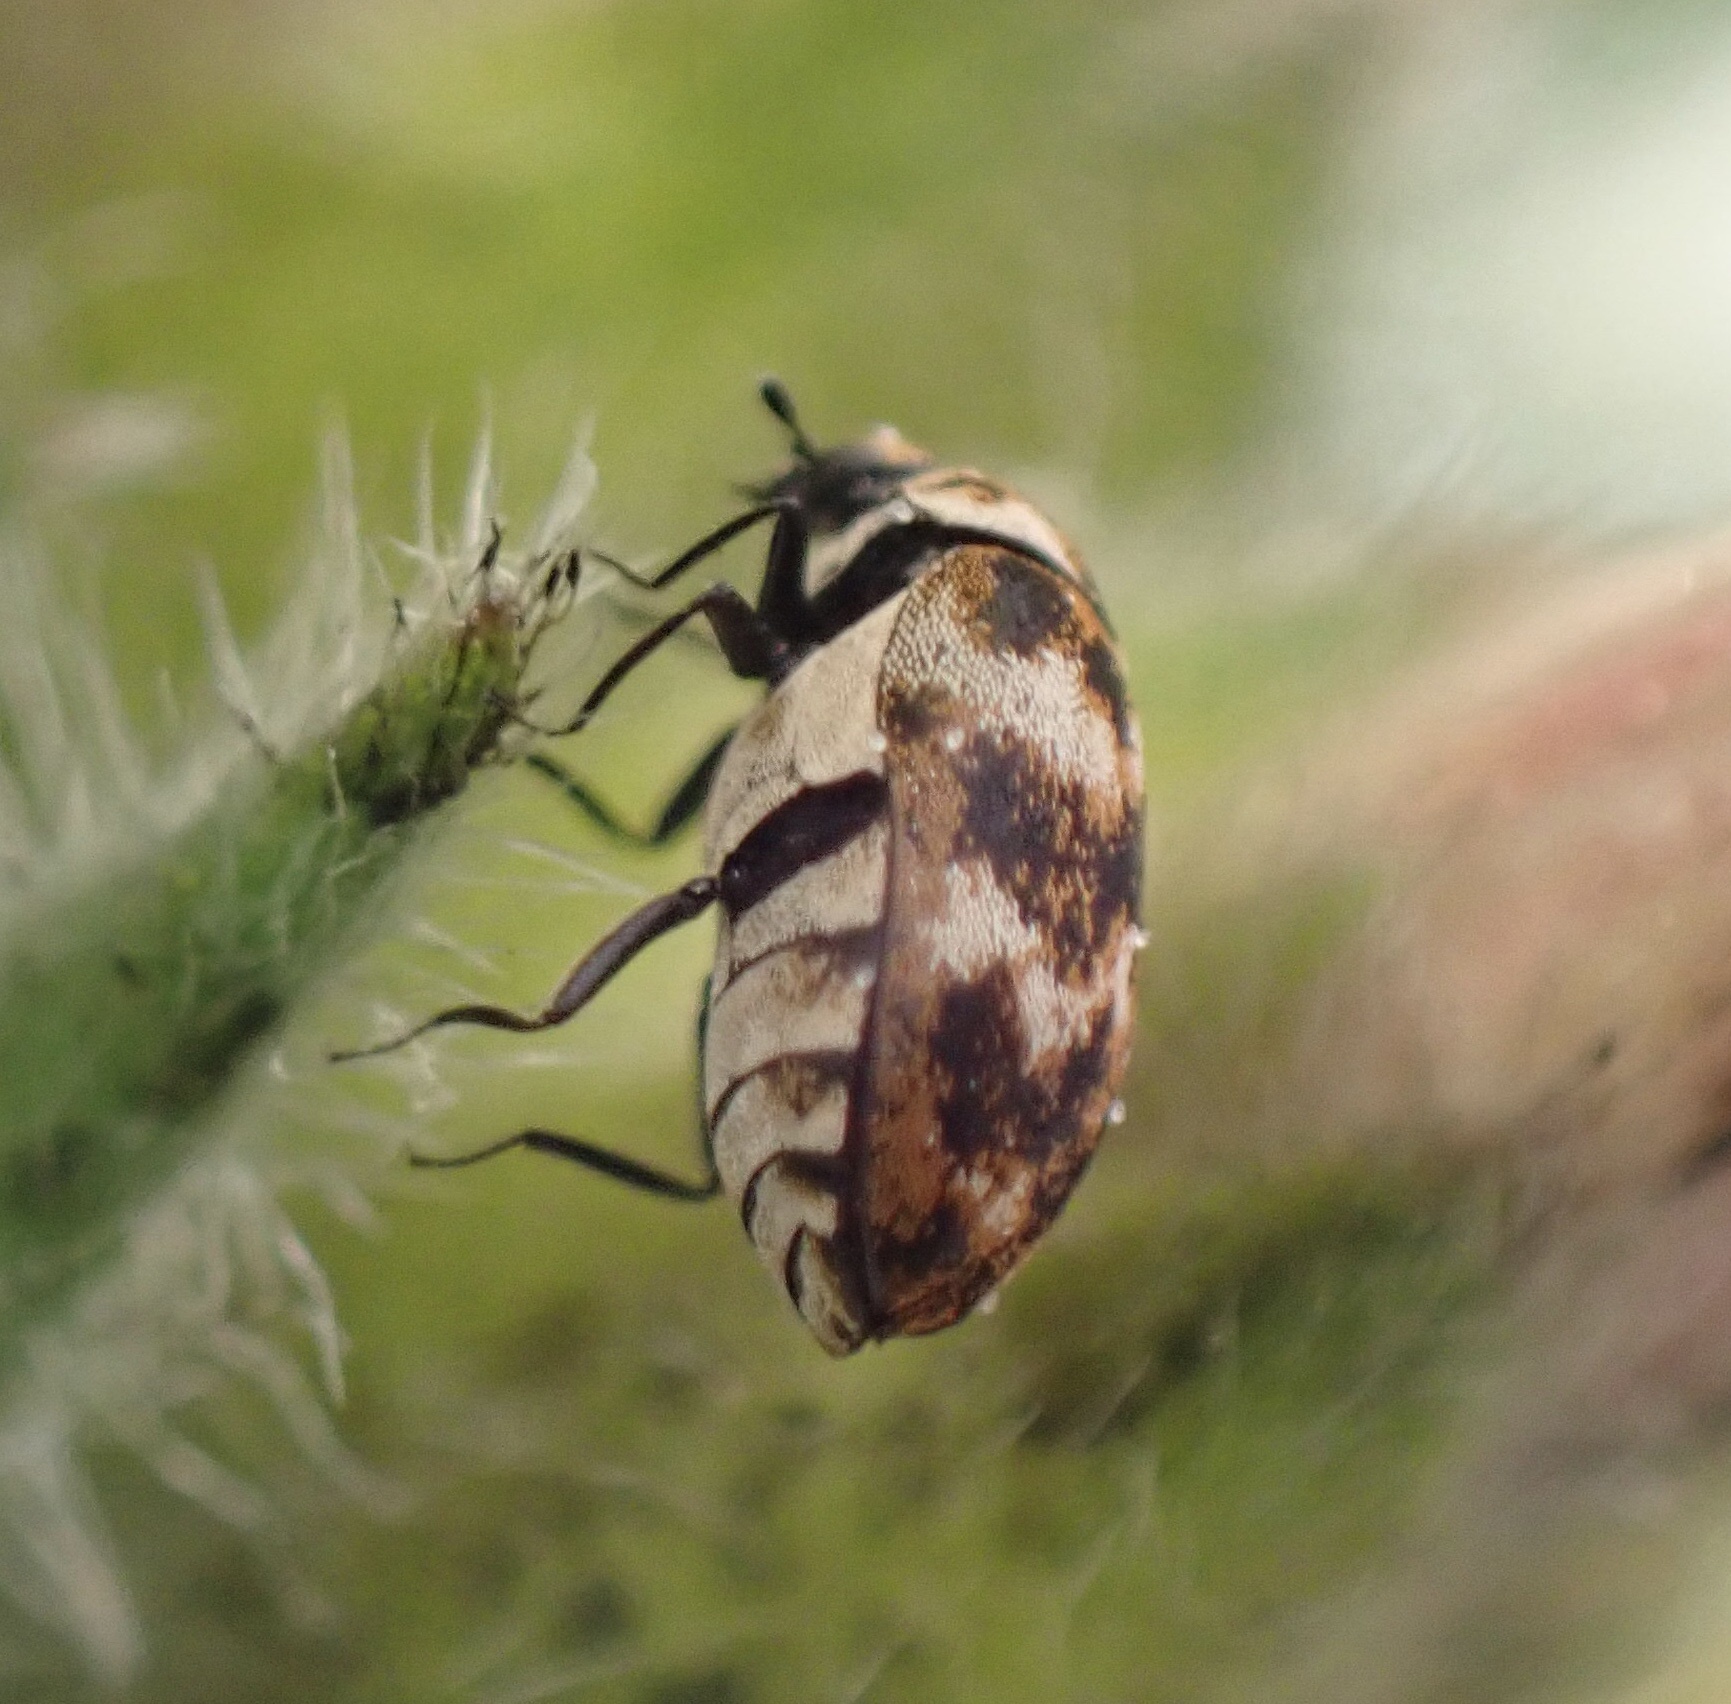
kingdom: Animalia
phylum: Arthropoda
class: Insecta
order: Coleoptera
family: Dermestidae
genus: Anthrenus
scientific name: Anthrenus verbasci
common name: Varied carpet beetle
